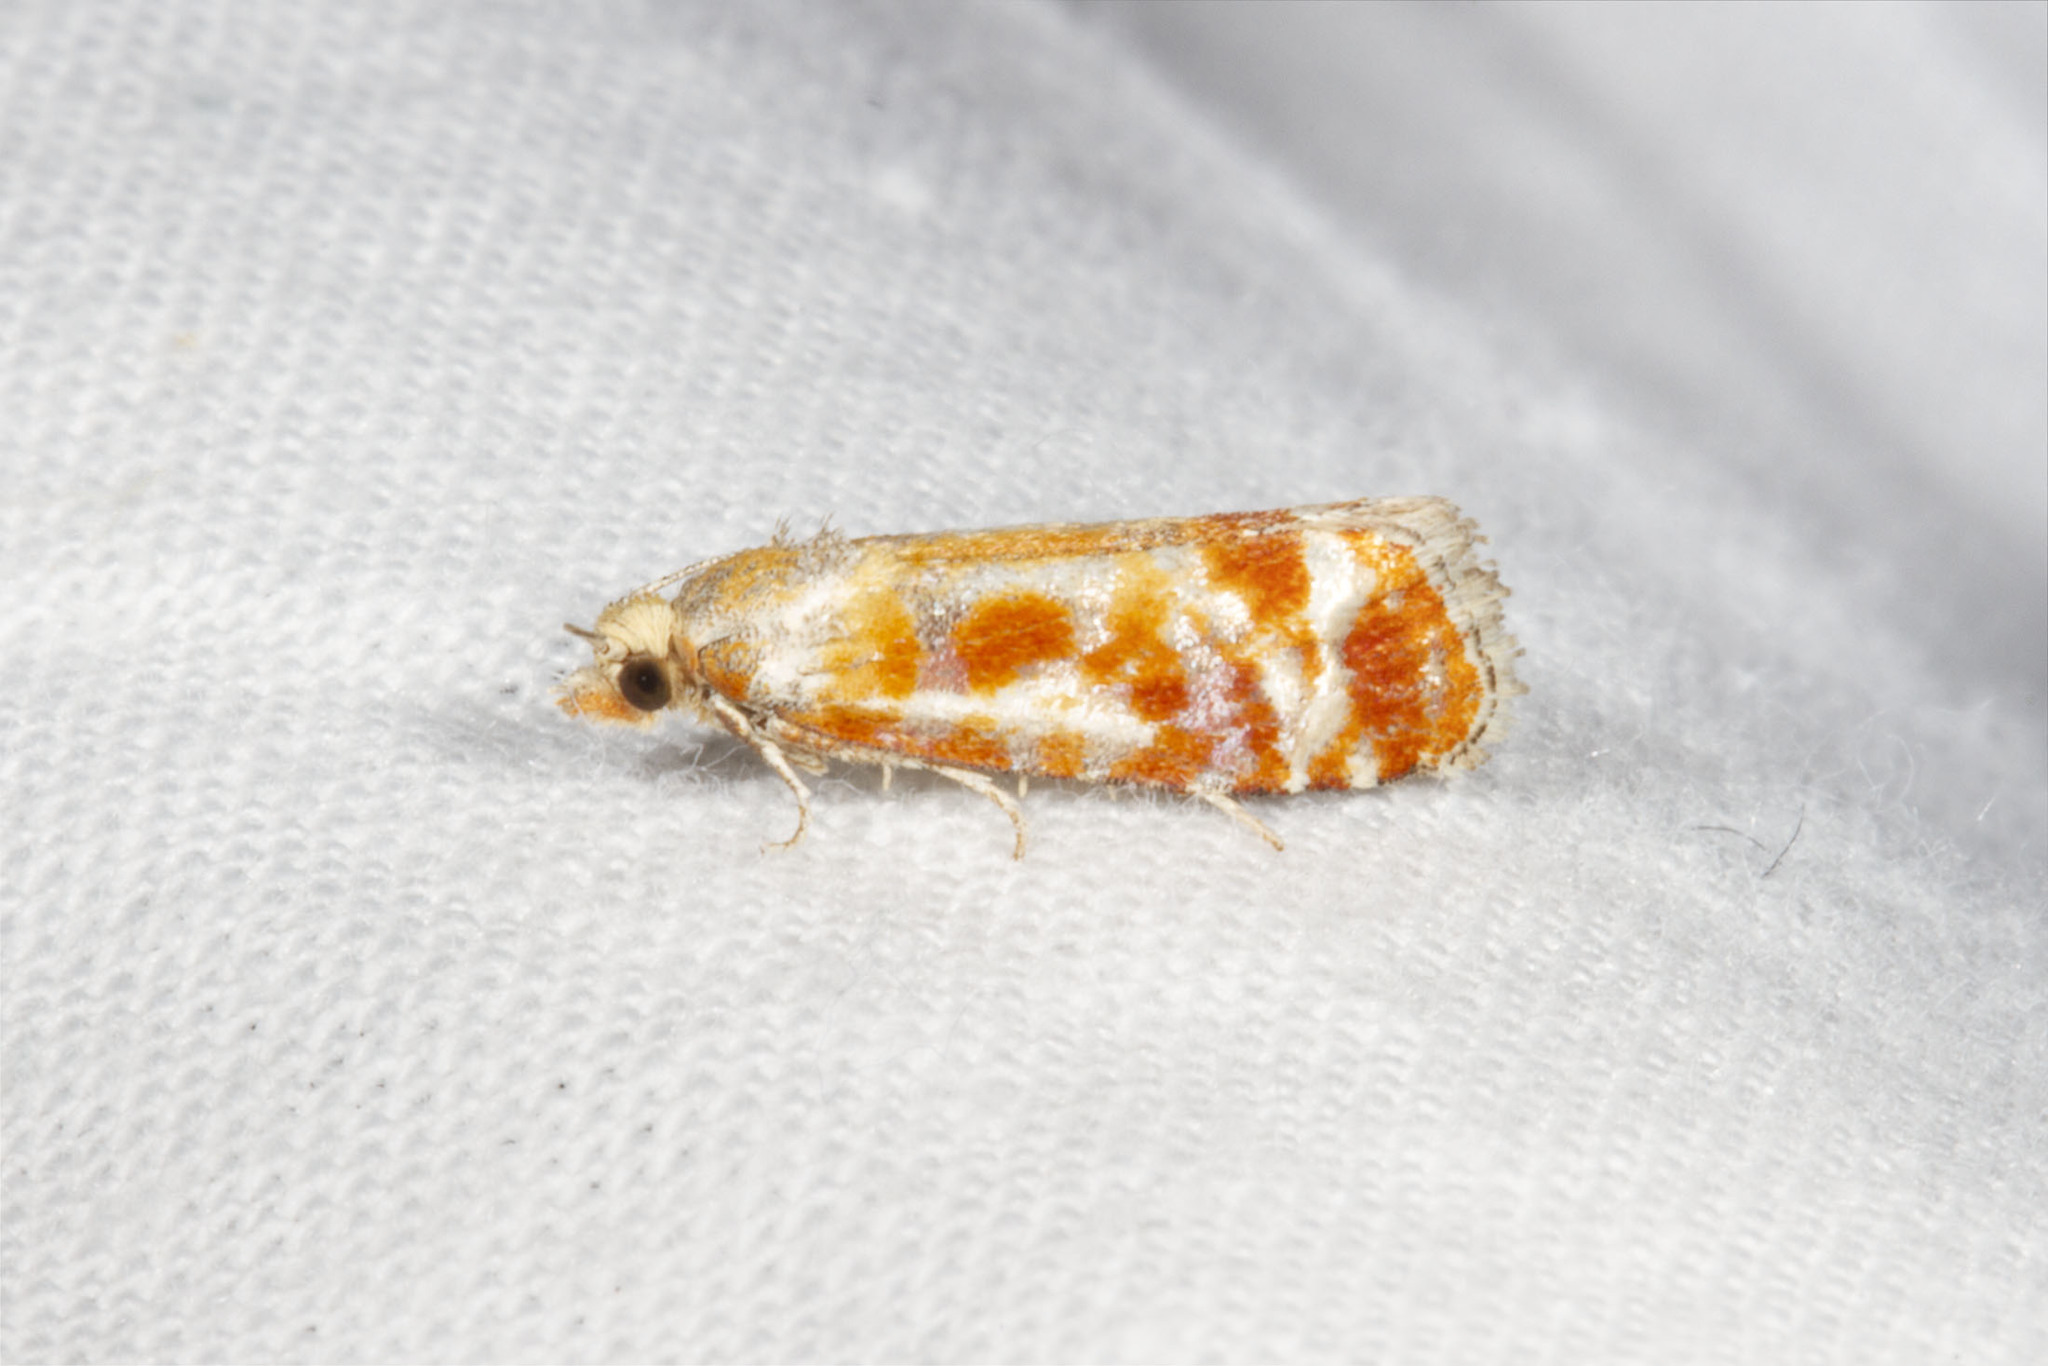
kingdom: Animalia
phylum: Arthropoda
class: Insecta
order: Lepidoptera
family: Tortricidae
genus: Rhyacionia
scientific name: Rhyacionia buoliana
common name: European pine shoot moth
